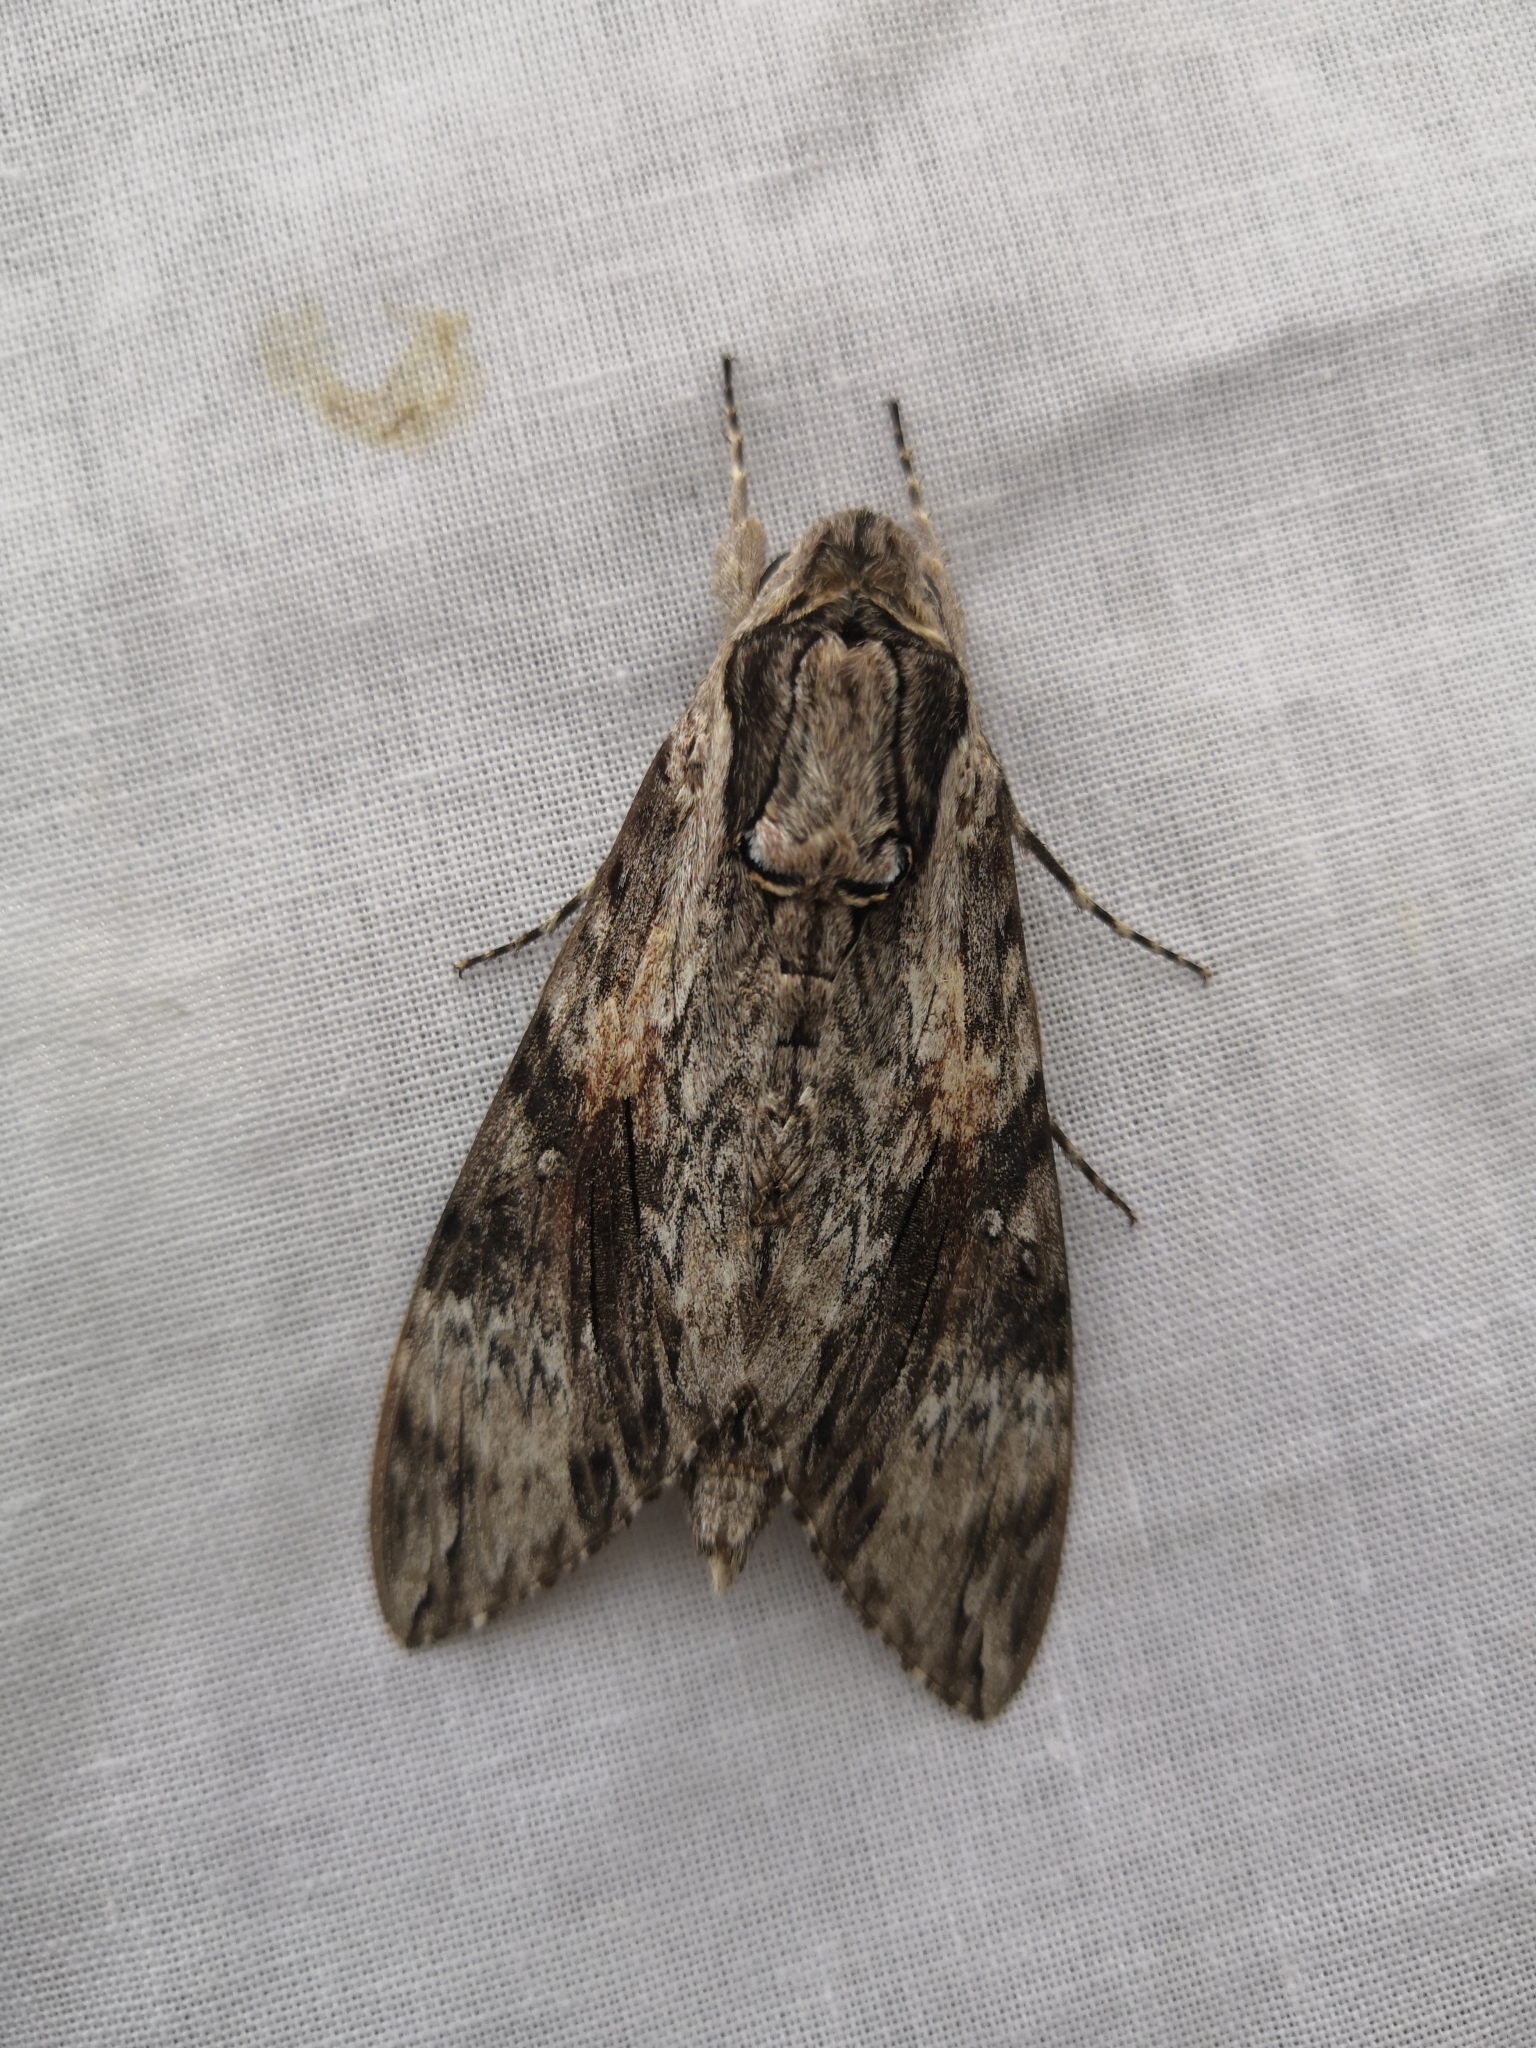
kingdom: Animalia
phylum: Arthropoda
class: Insecta
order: Lepidoptera
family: Sphingidae
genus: Agrius
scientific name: Agrius convolvuli
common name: Convolvulus hawkmoth
